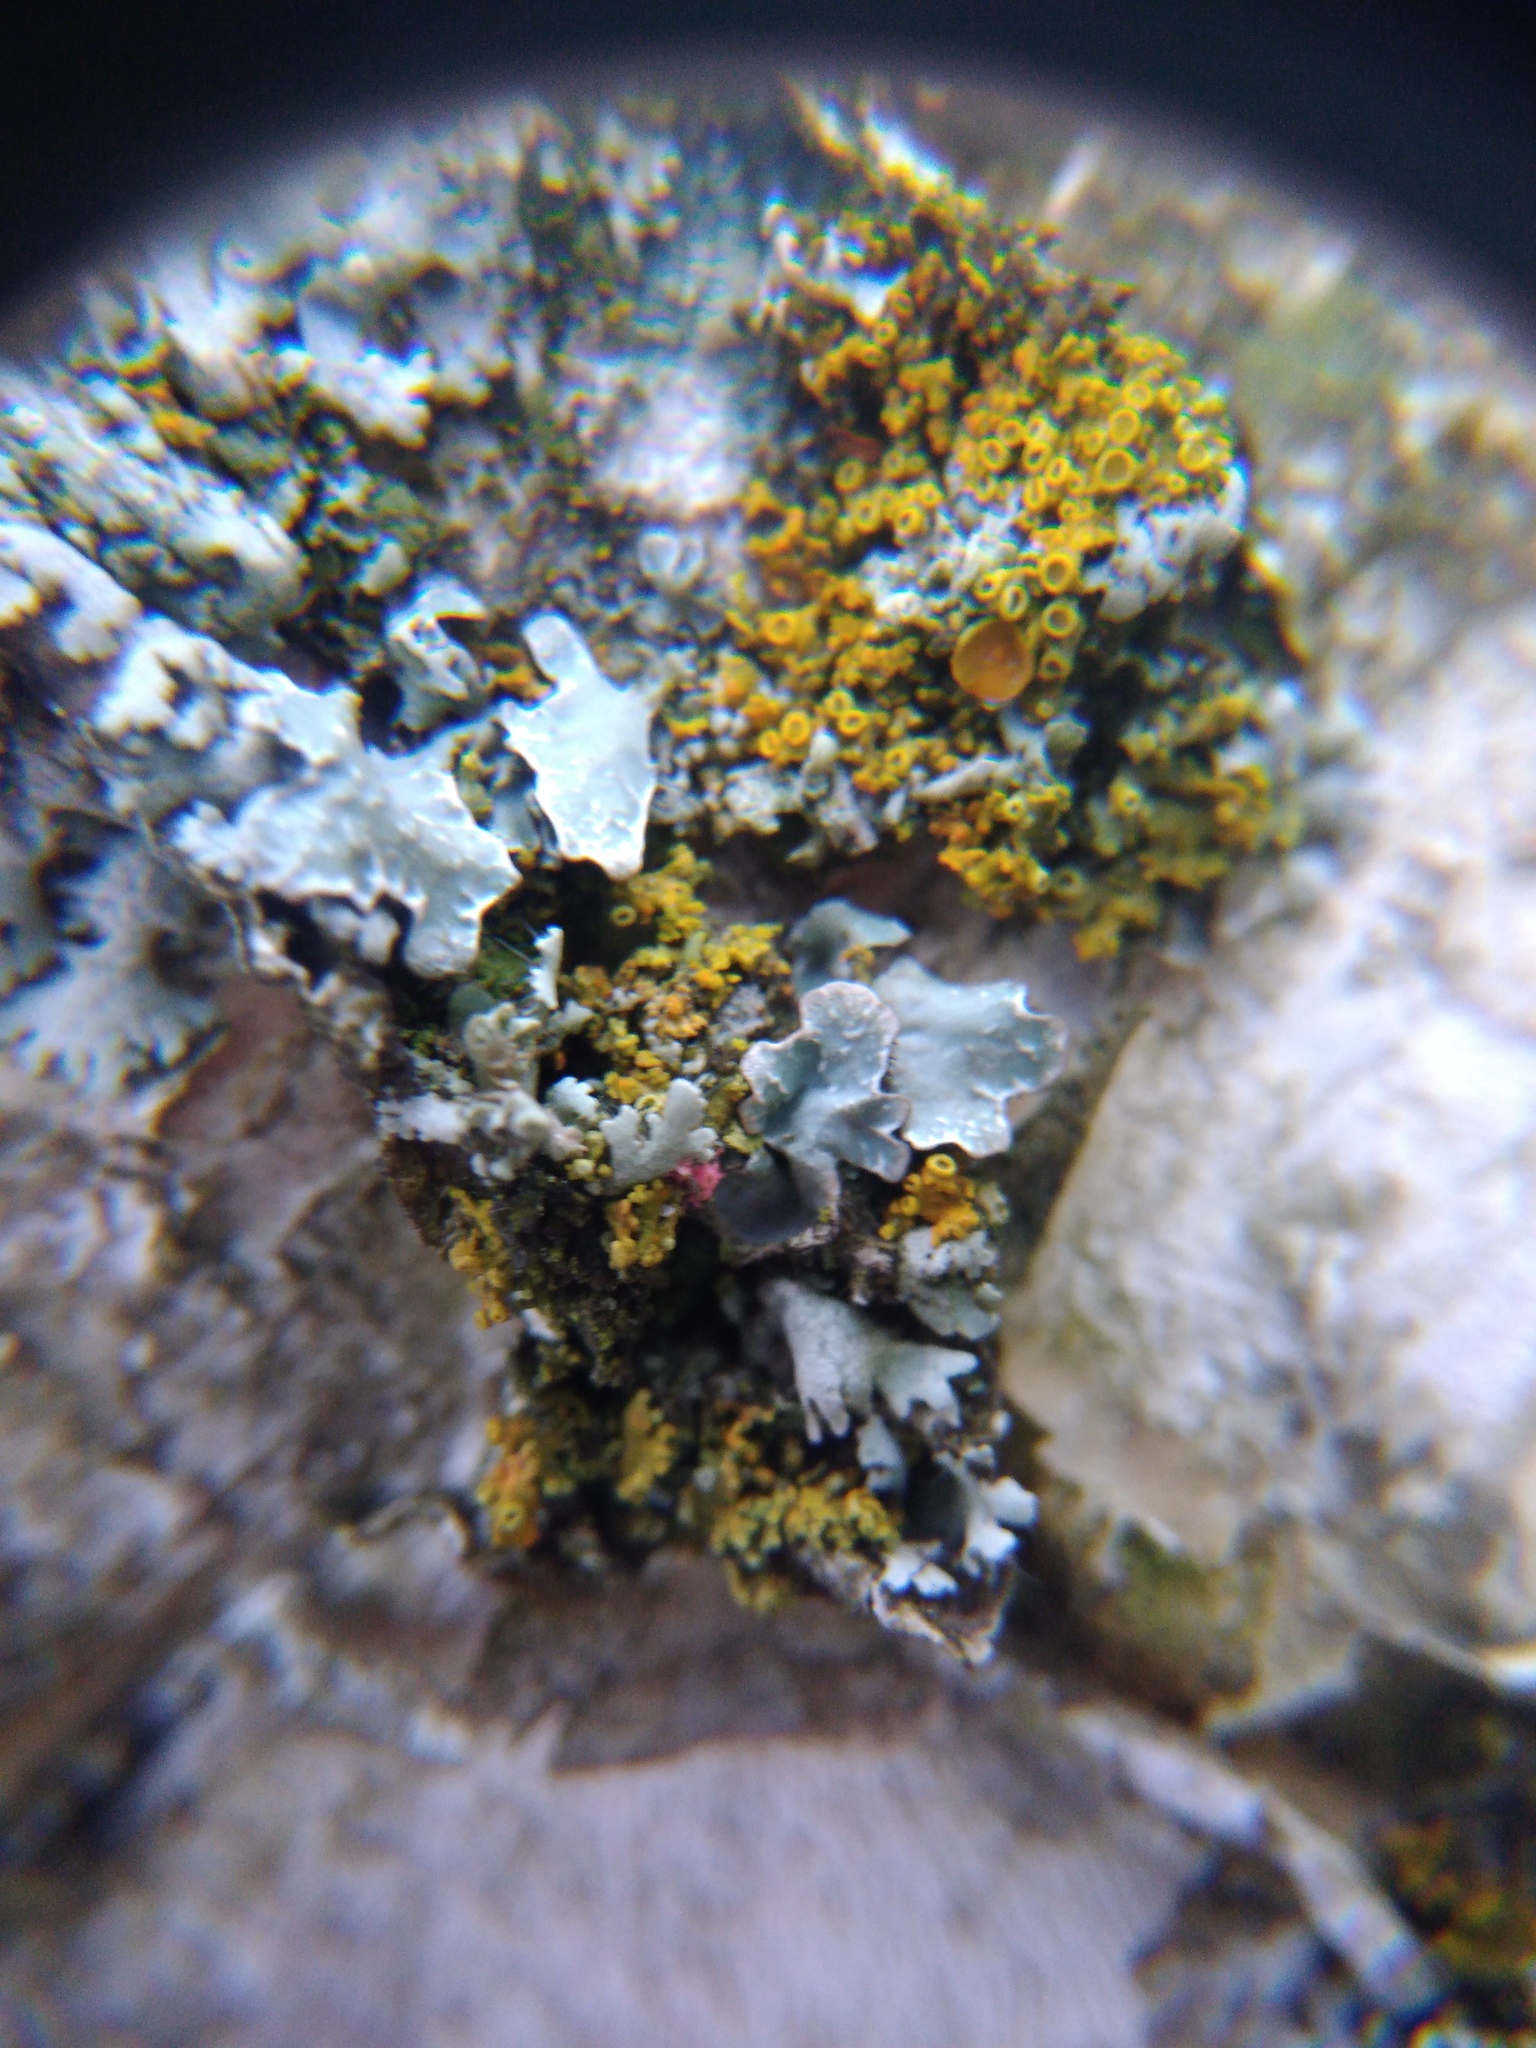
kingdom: Fungi
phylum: Ascomycota
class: Sordariomycetes
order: Hypocreales
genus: Illosporiopsis
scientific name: Illosporiopsis christiansenii
